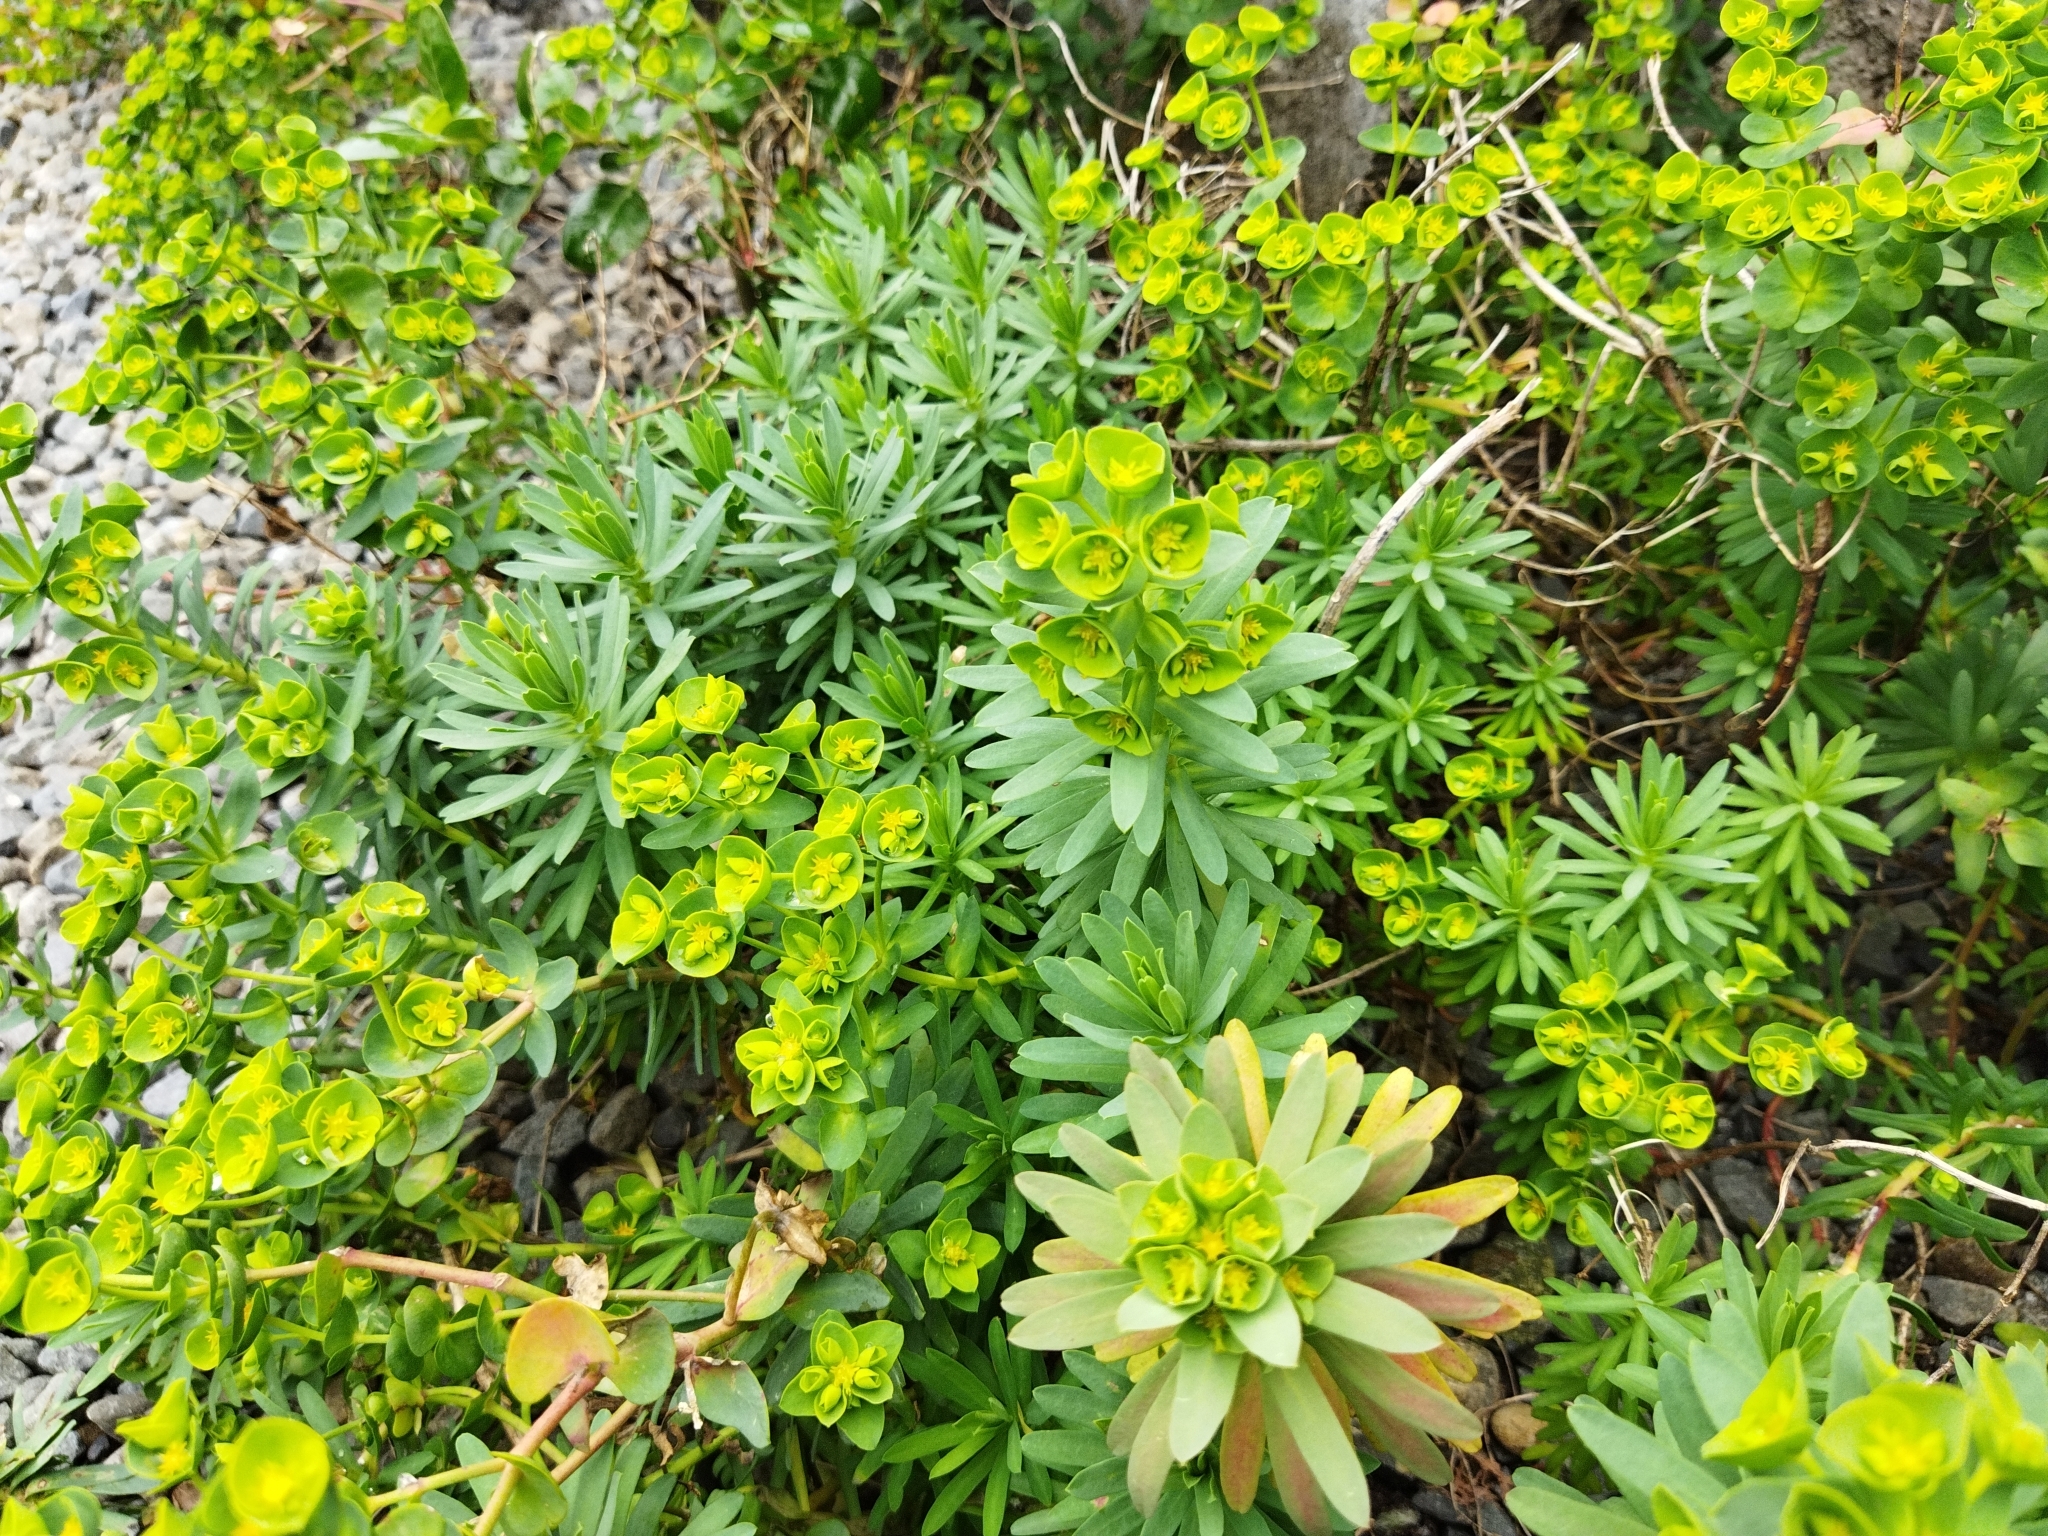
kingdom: Plantae
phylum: Tracheophyta
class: Magnoliopsida
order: Malpighiales
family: Euphorbiaceae
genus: Euphorbia
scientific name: Euphorbia segetalis
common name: Corn spurge
